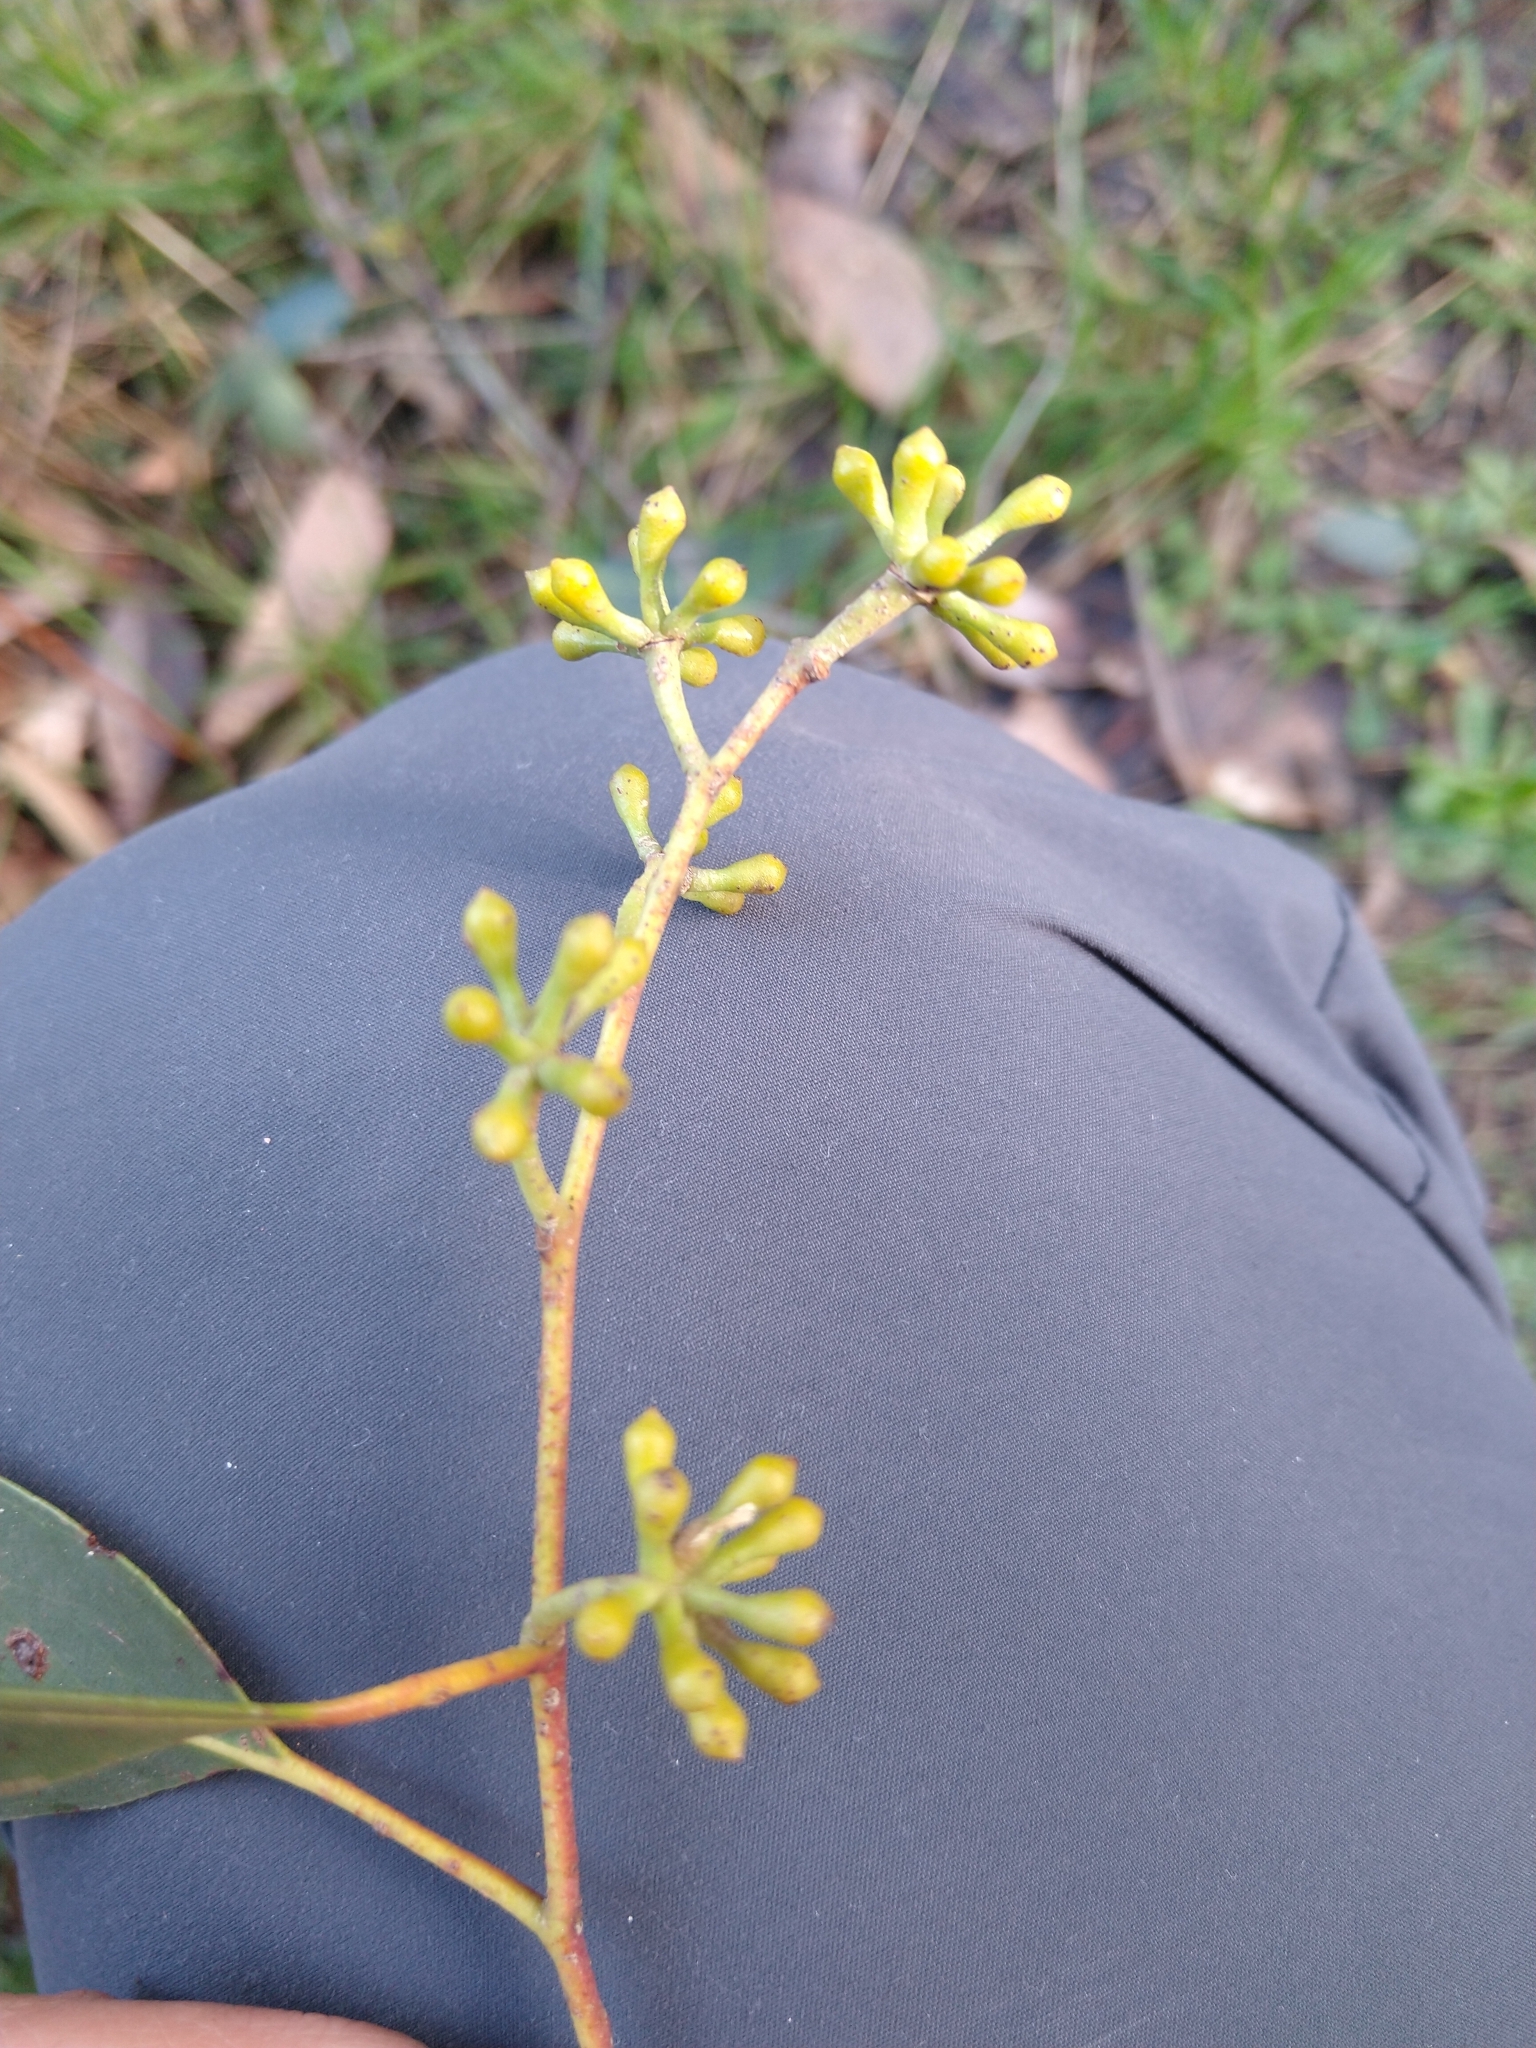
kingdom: Plantae
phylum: Tracheophyta
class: Magnoliopsida
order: Myrtales
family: Myrtaceae
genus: Eucalyptus
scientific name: Eucalyptus obliqua
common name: Messmate stringybark
